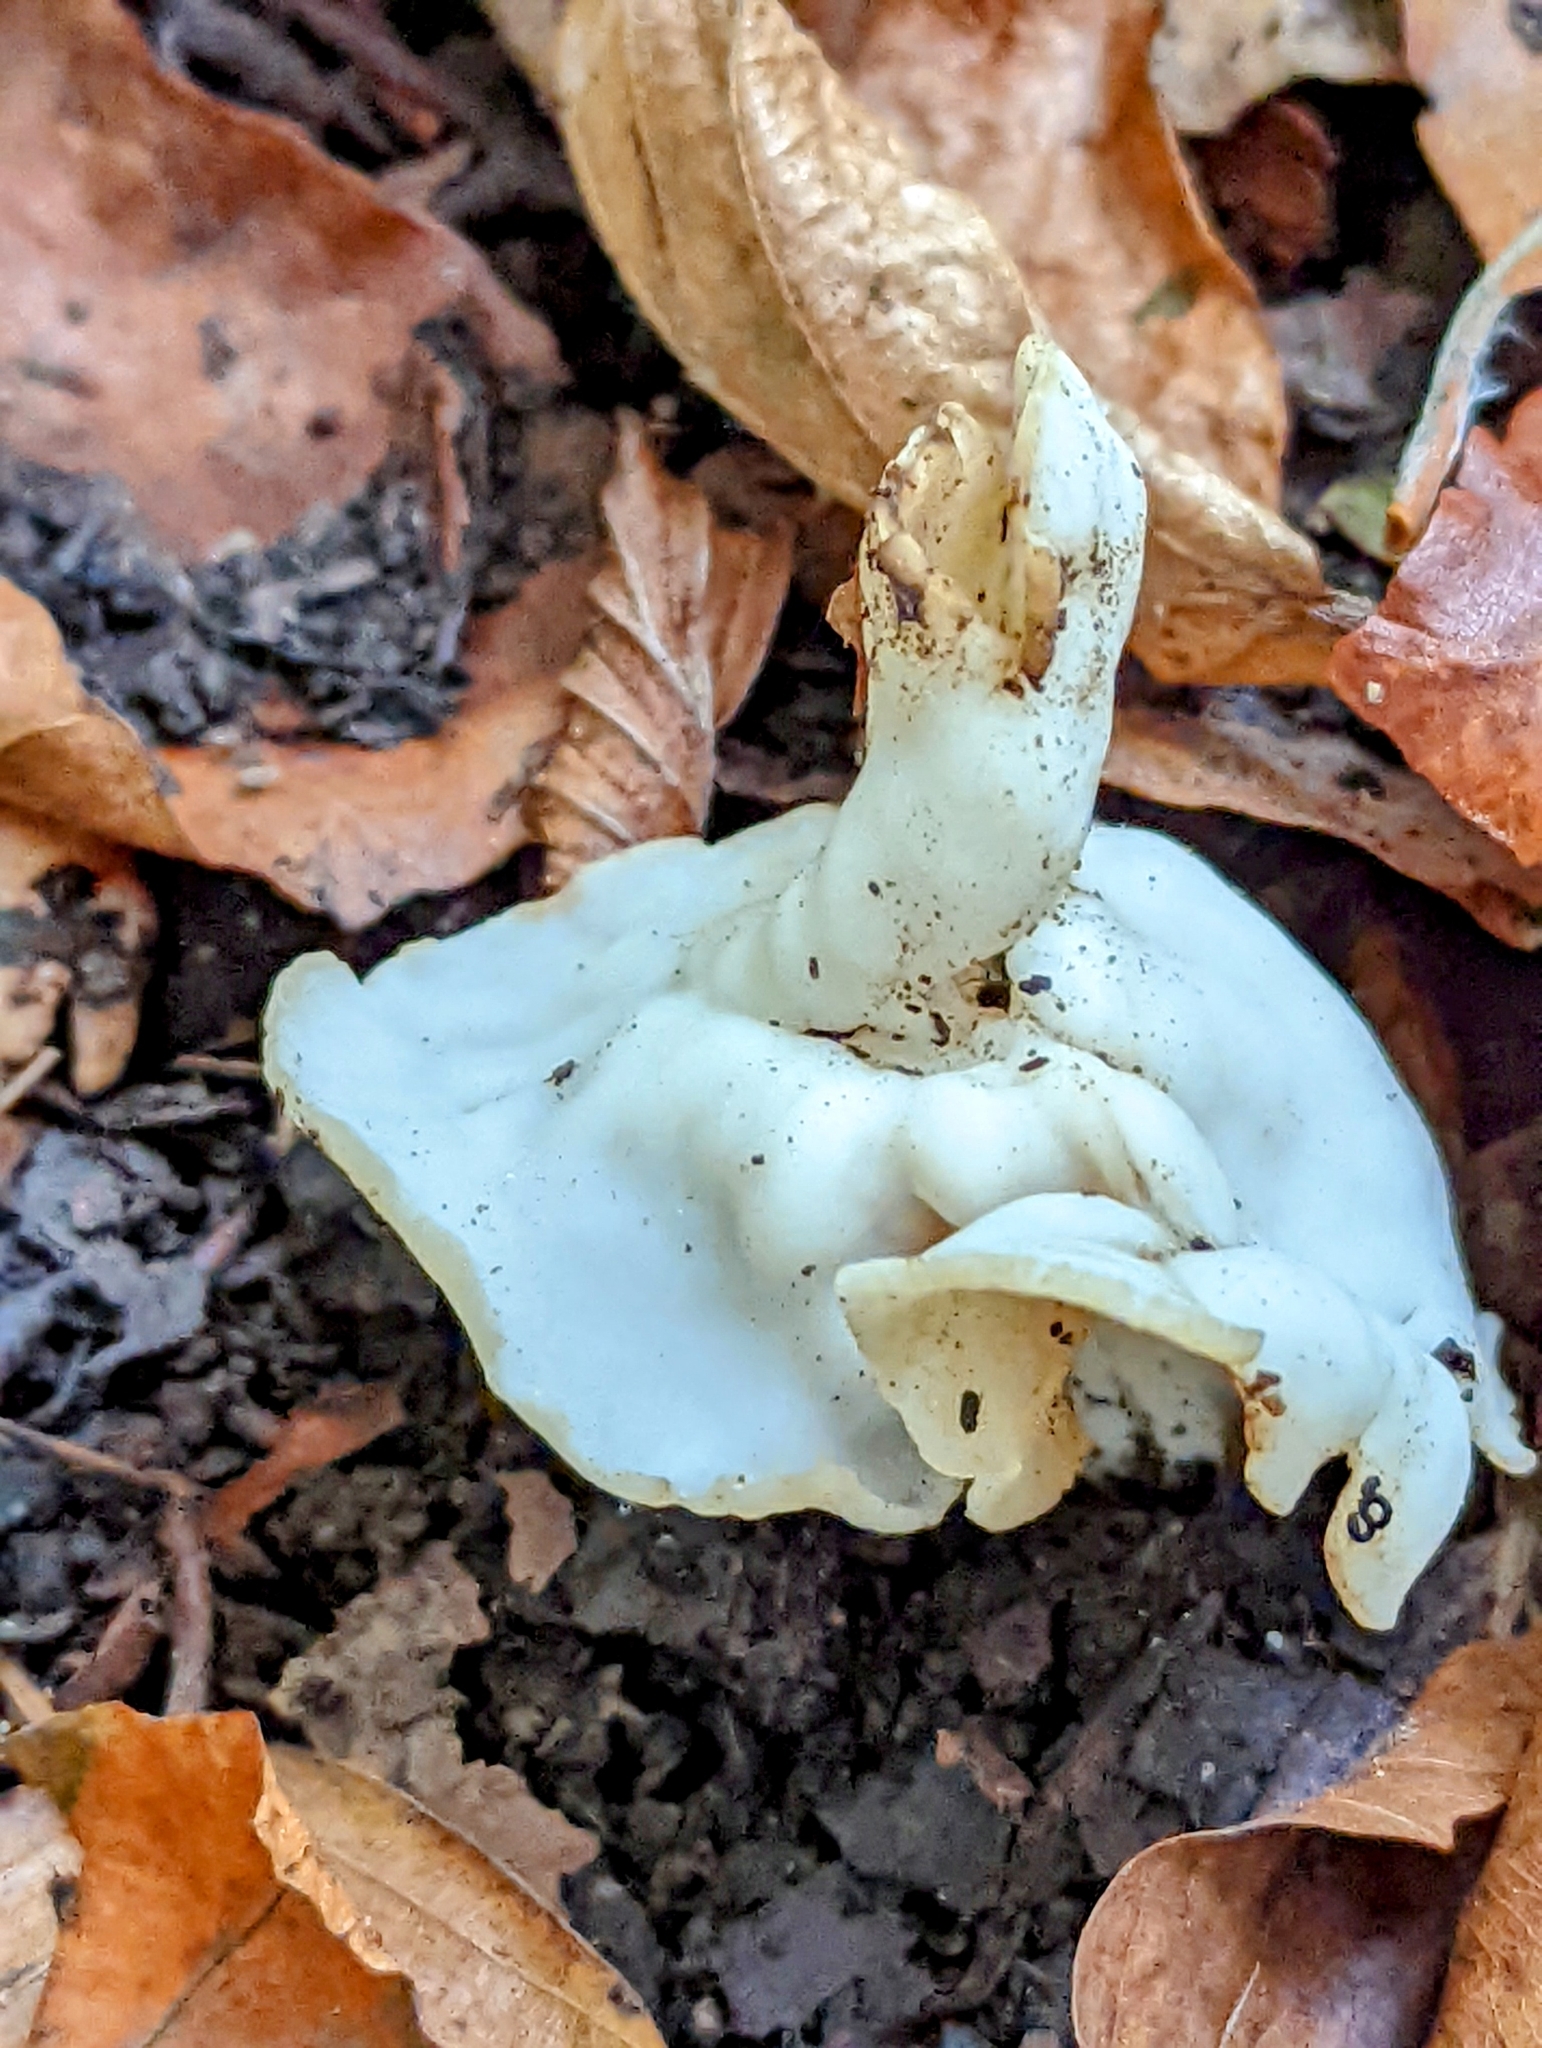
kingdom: Fungi
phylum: Ascomycota
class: Pezizomycetes
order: Pezizales
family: Helvellaceae
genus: Helvella
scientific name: Helvella crispa
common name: White saddle
